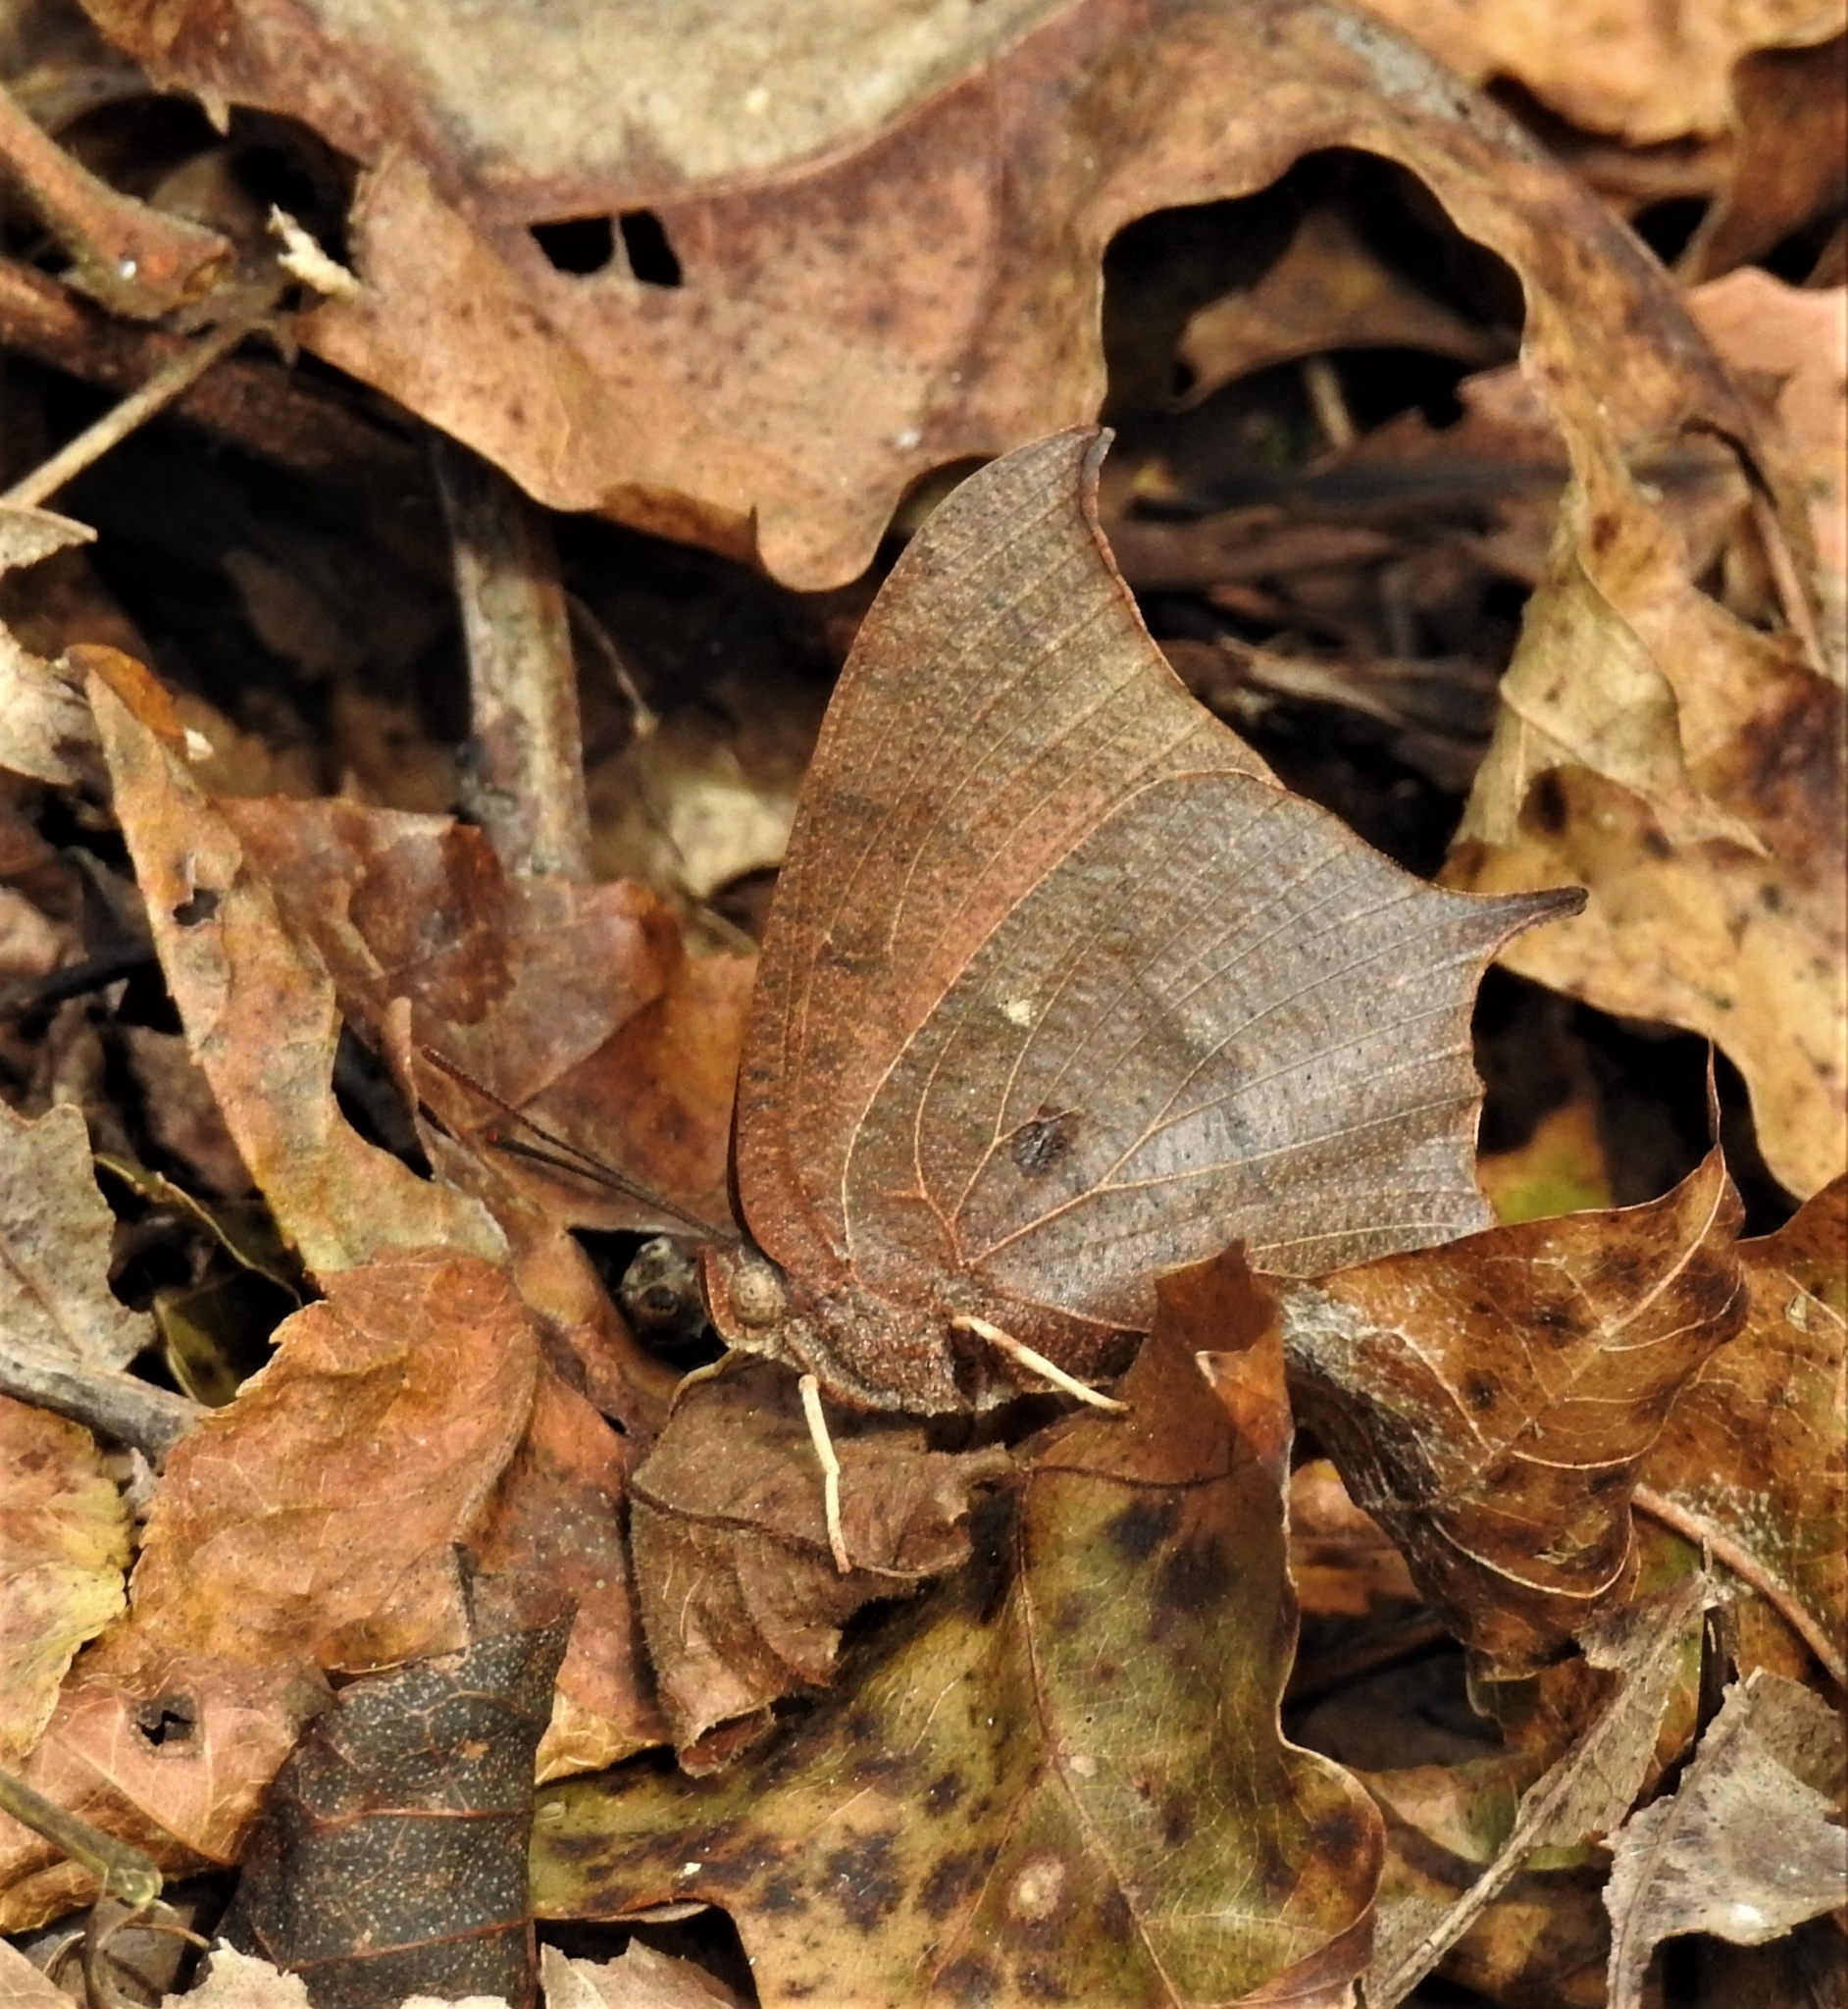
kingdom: Animalia
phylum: Arthropoda
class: Insecta
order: Lepidoptera
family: Nymphalidae
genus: Anaea
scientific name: Anaea andria
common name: Goatweed leafwing
